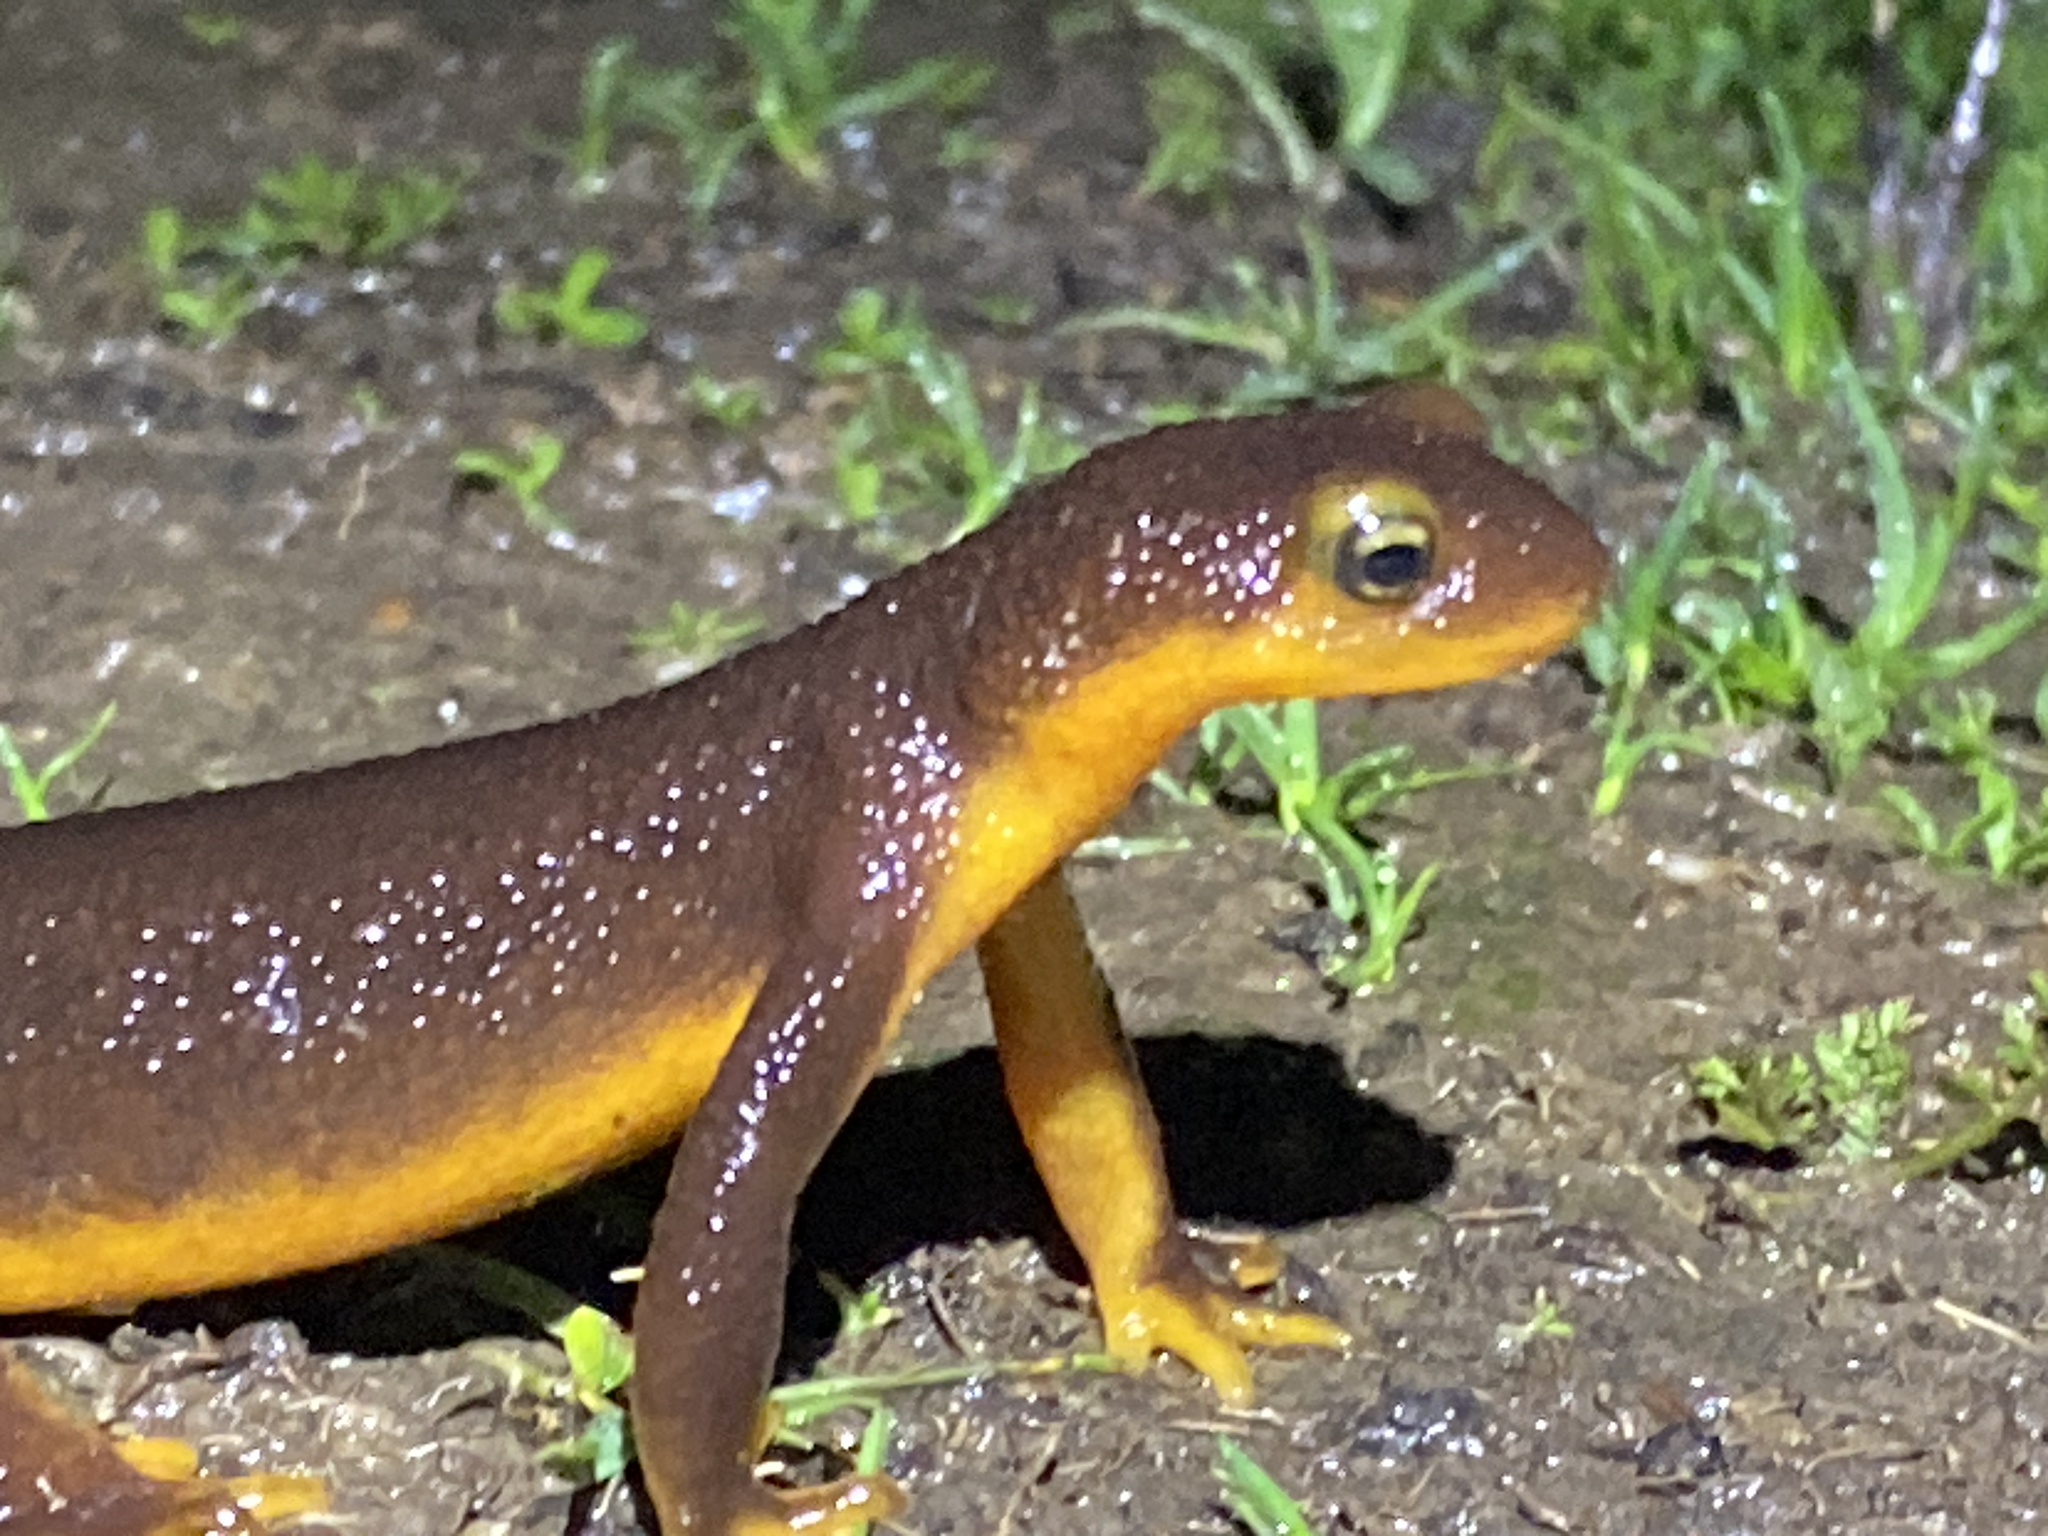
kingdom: Animalia
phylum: Chordata
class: Amphibia
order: Caudata
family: Salamandridae
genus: Taricha
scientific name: Taricha torosa
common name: California newt
